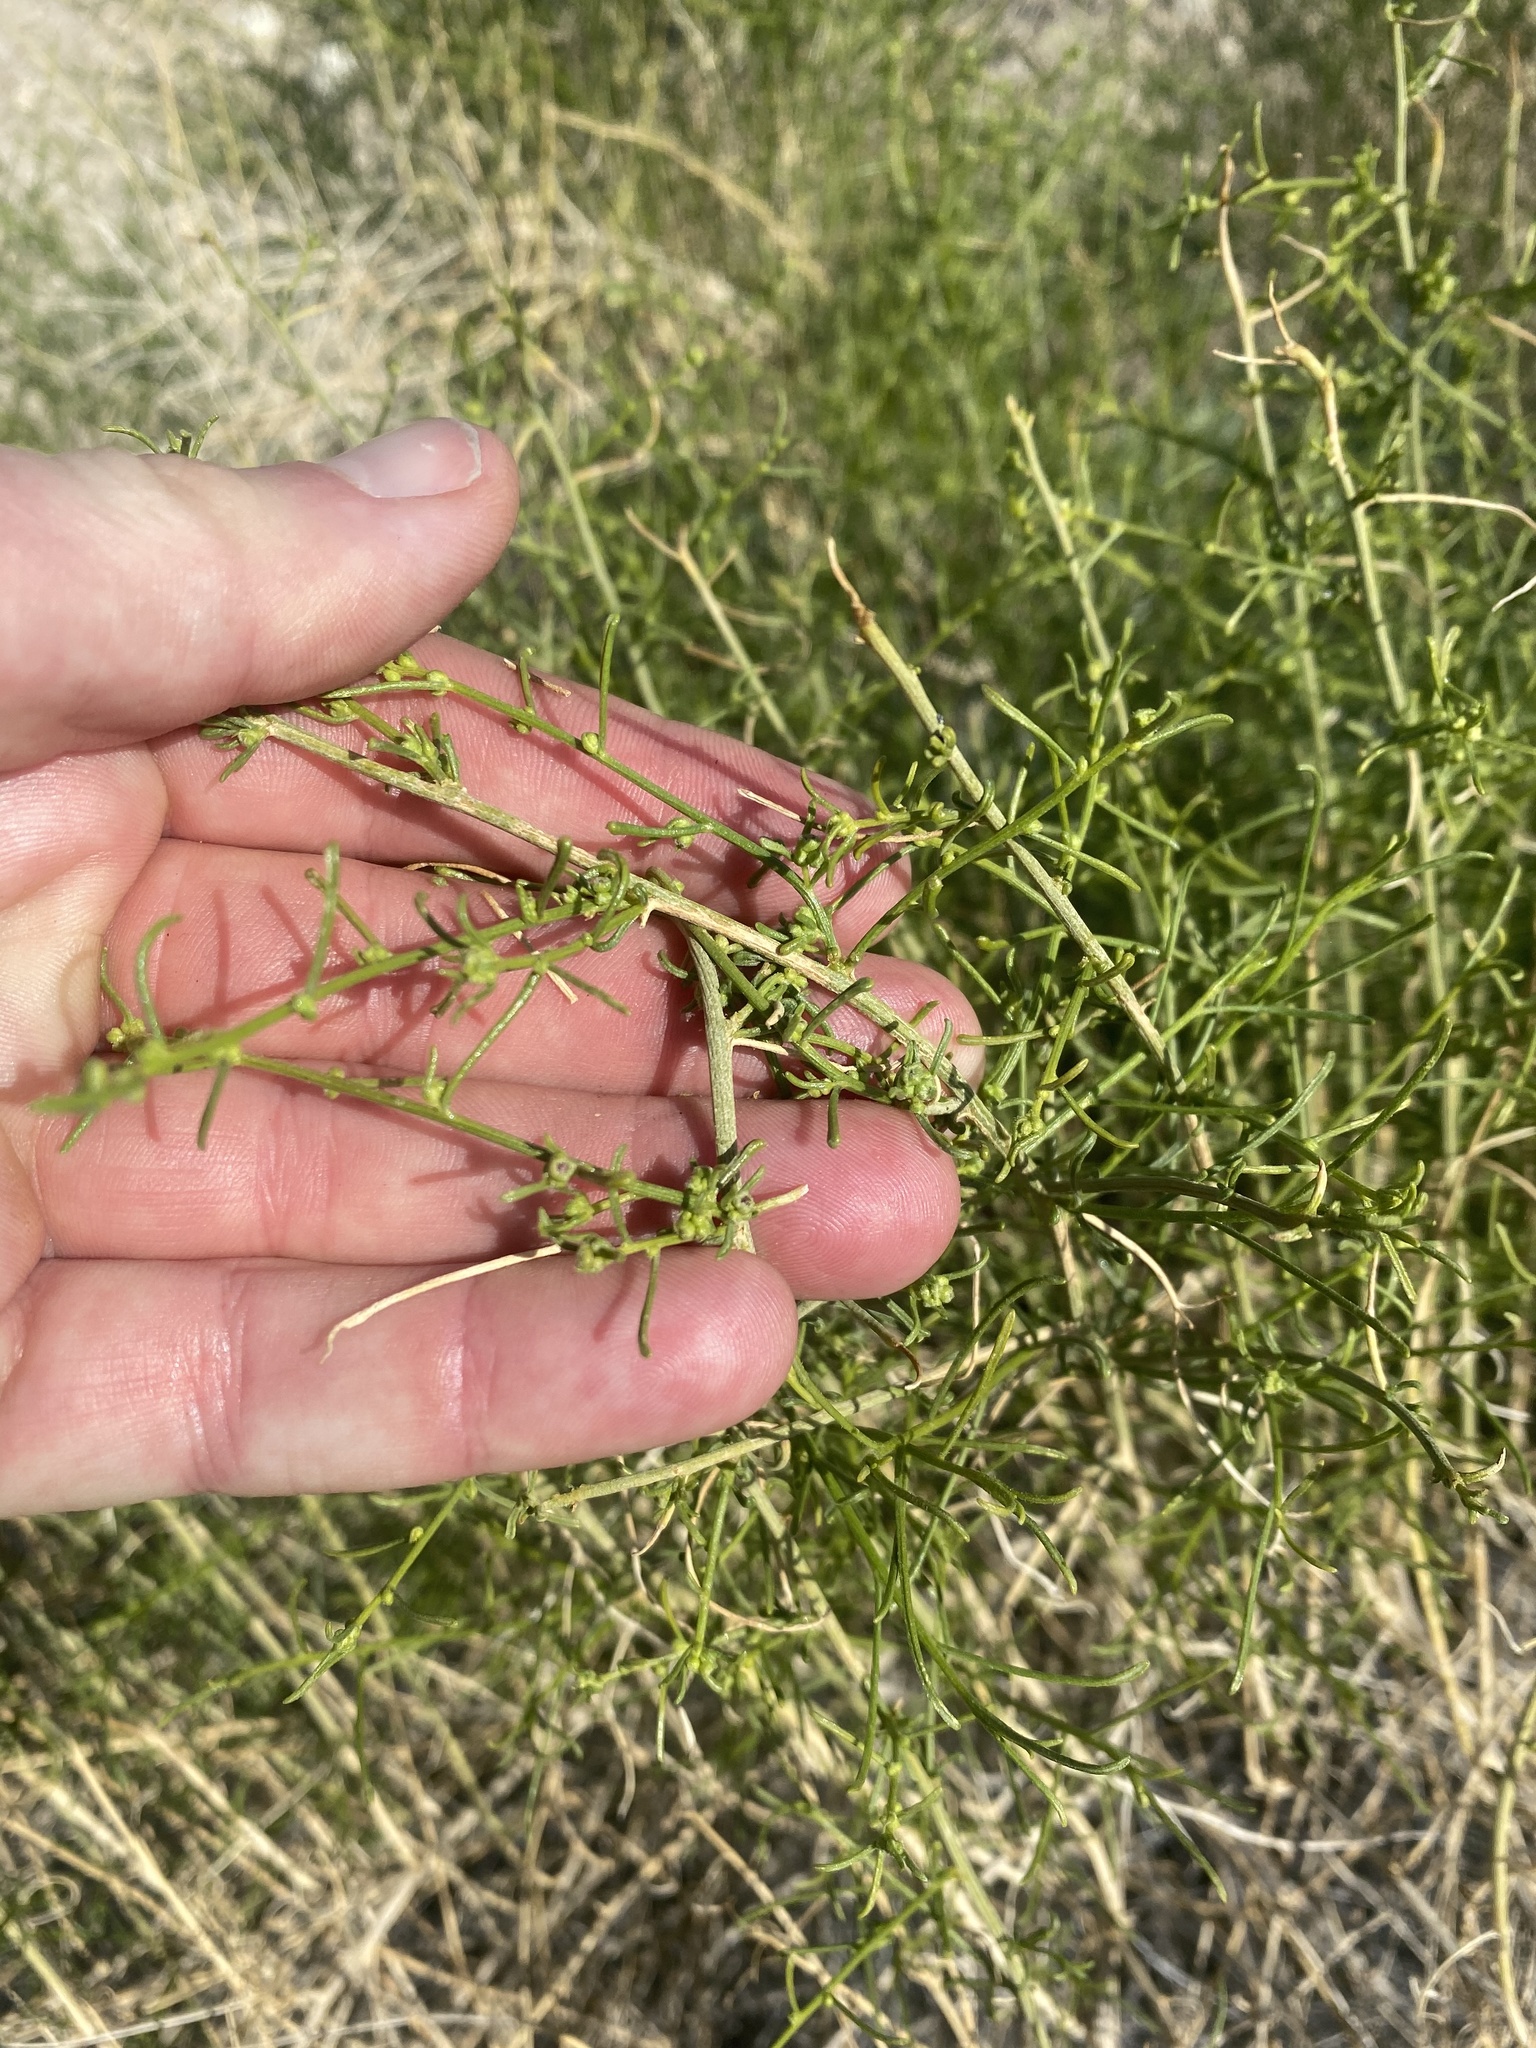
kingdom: Plantae
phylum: Tracheophyta
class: Magnoliopsida
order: Asterales
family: Asteraceae
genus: Ambrosia
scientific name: Ambrosia salsola
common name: Burrobrush
